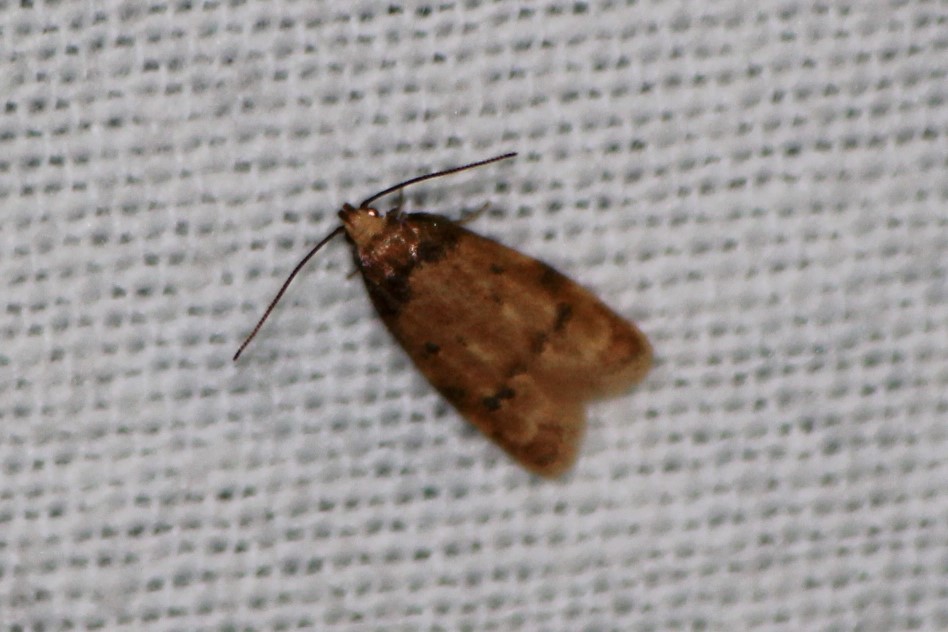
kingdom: Animalia
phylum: Arthropoda
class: Insecta
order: Lepidoptera
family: Autostichidae
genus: Gerdana
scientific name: Gerdana caritella
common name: Gerdana moth
